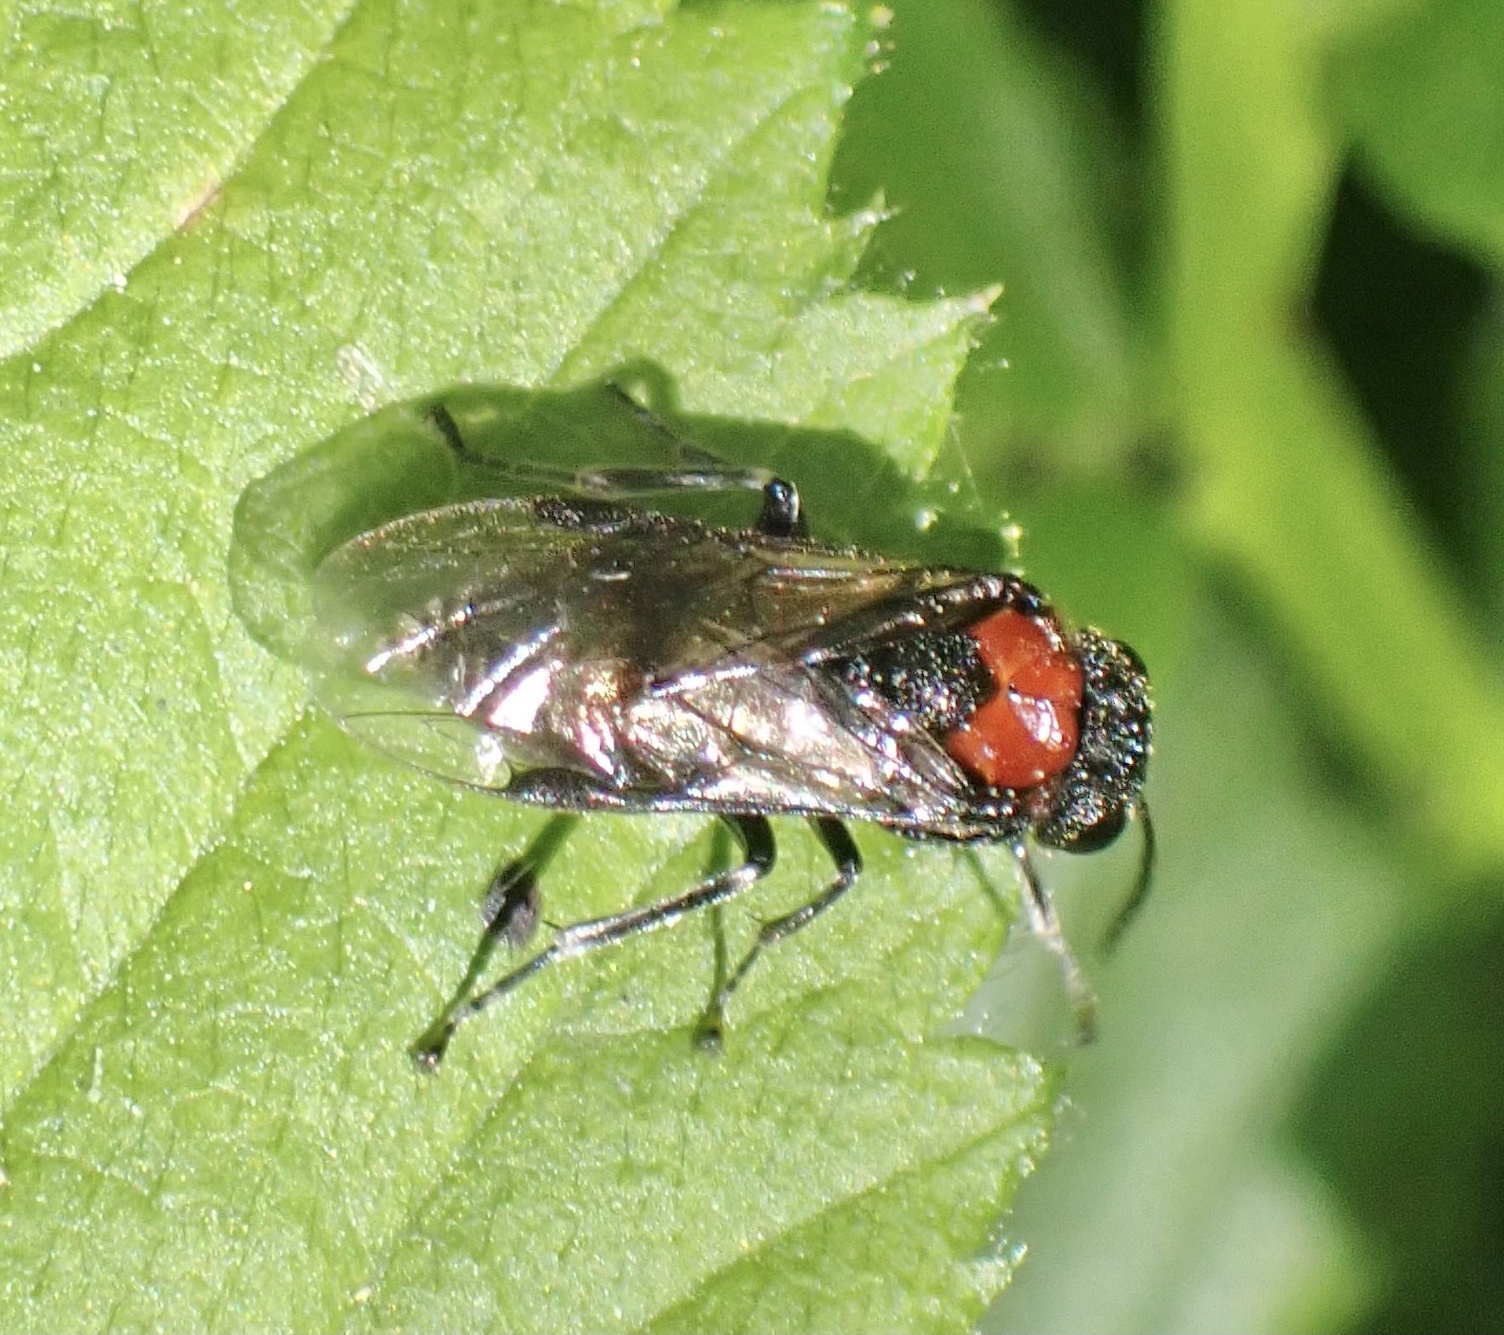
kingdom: Animalia
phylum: Arthropoda
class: Insecta
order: Hymenoptera
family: Tenthredinidae
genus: Eriocampa
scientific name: Eriocampa ovata
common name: Alder wooly sawfly
